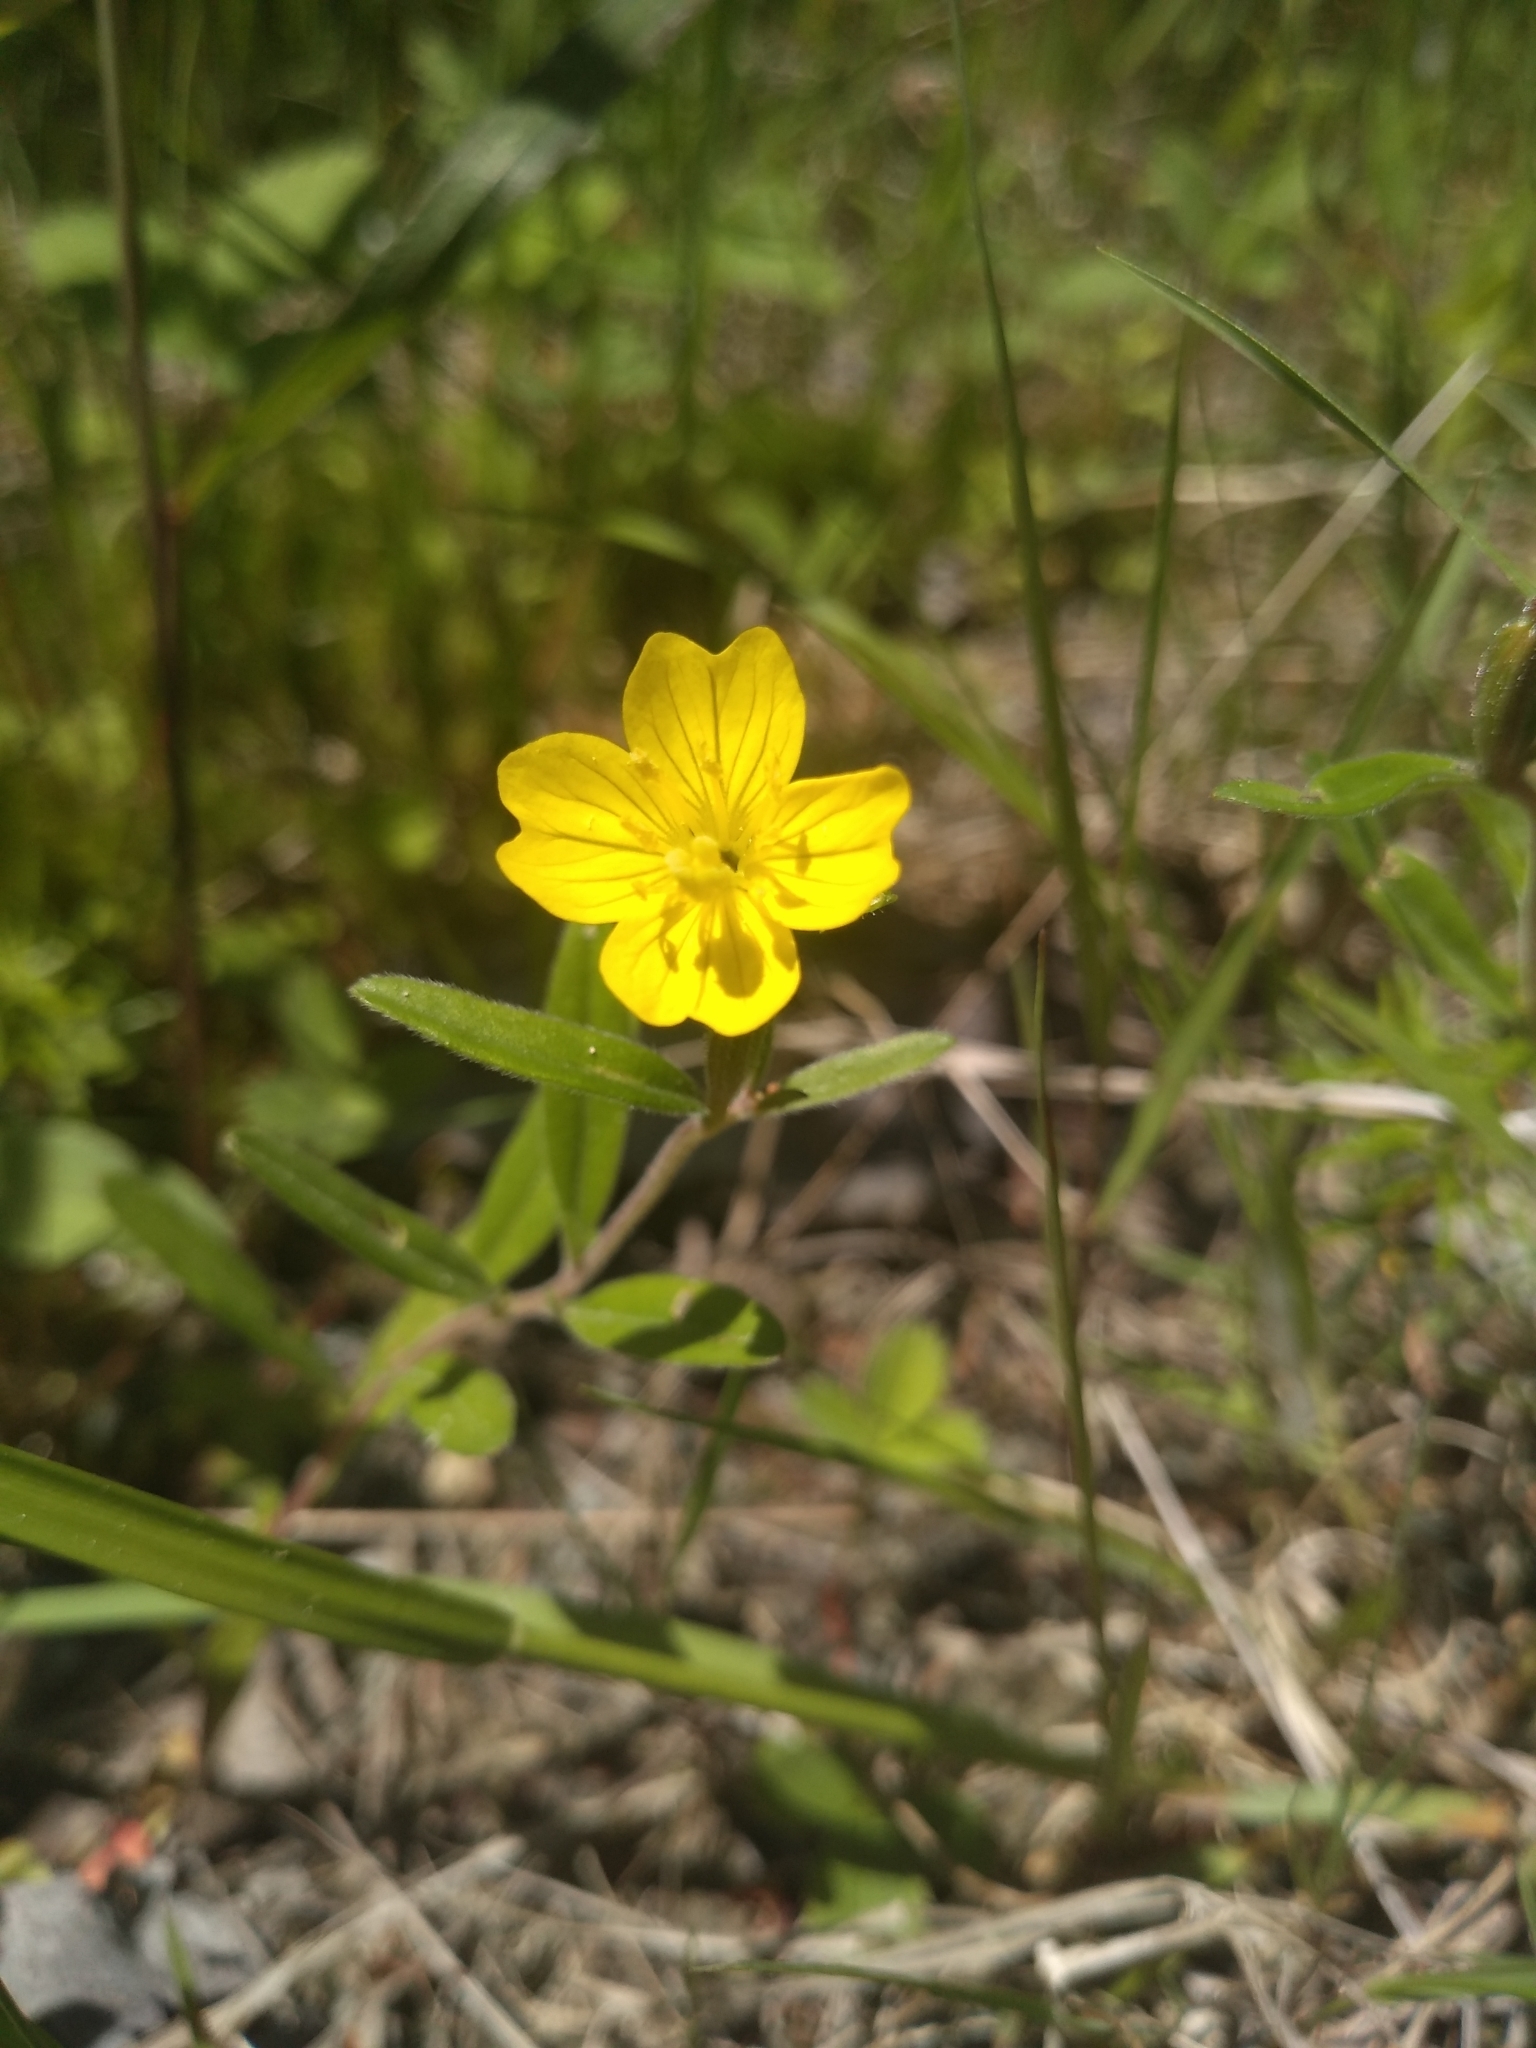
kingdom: Plantae
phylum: Tracheophyta
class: Magnoliopsida
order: Myrtales
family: Onagraceae
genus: Oenothera
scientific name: Oenothera perennis
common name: Small sundrops
